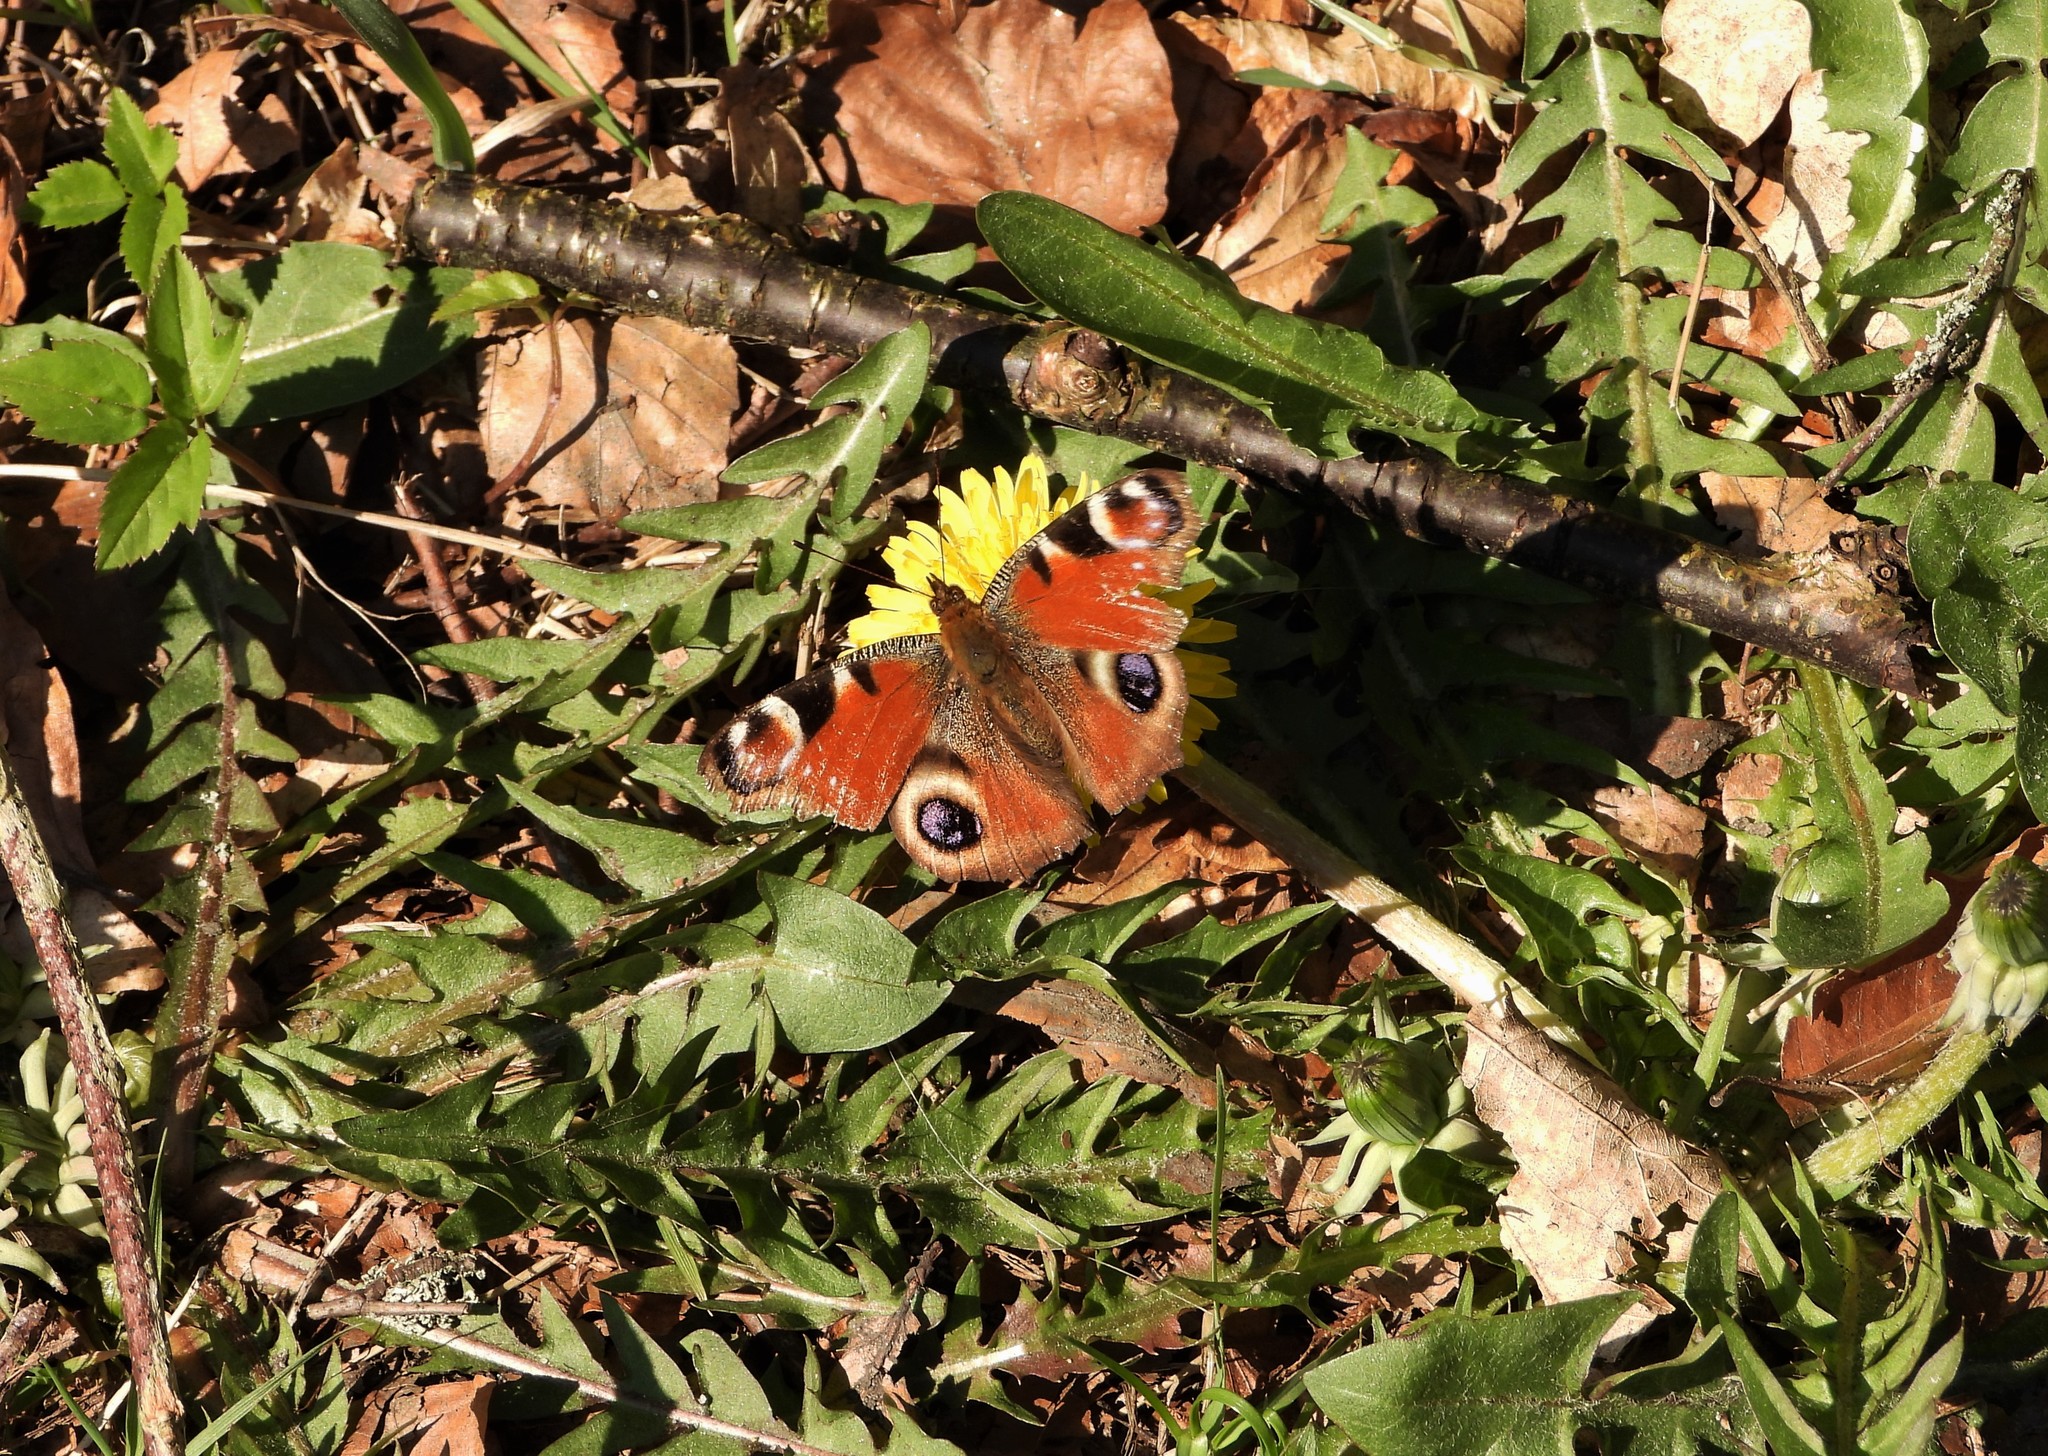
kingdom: Animalia
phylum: Arthropoda
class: Insecta
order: Lepidoptera
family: Nymphalidae
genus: Aglais
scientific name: Aglais io
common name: Peacock
